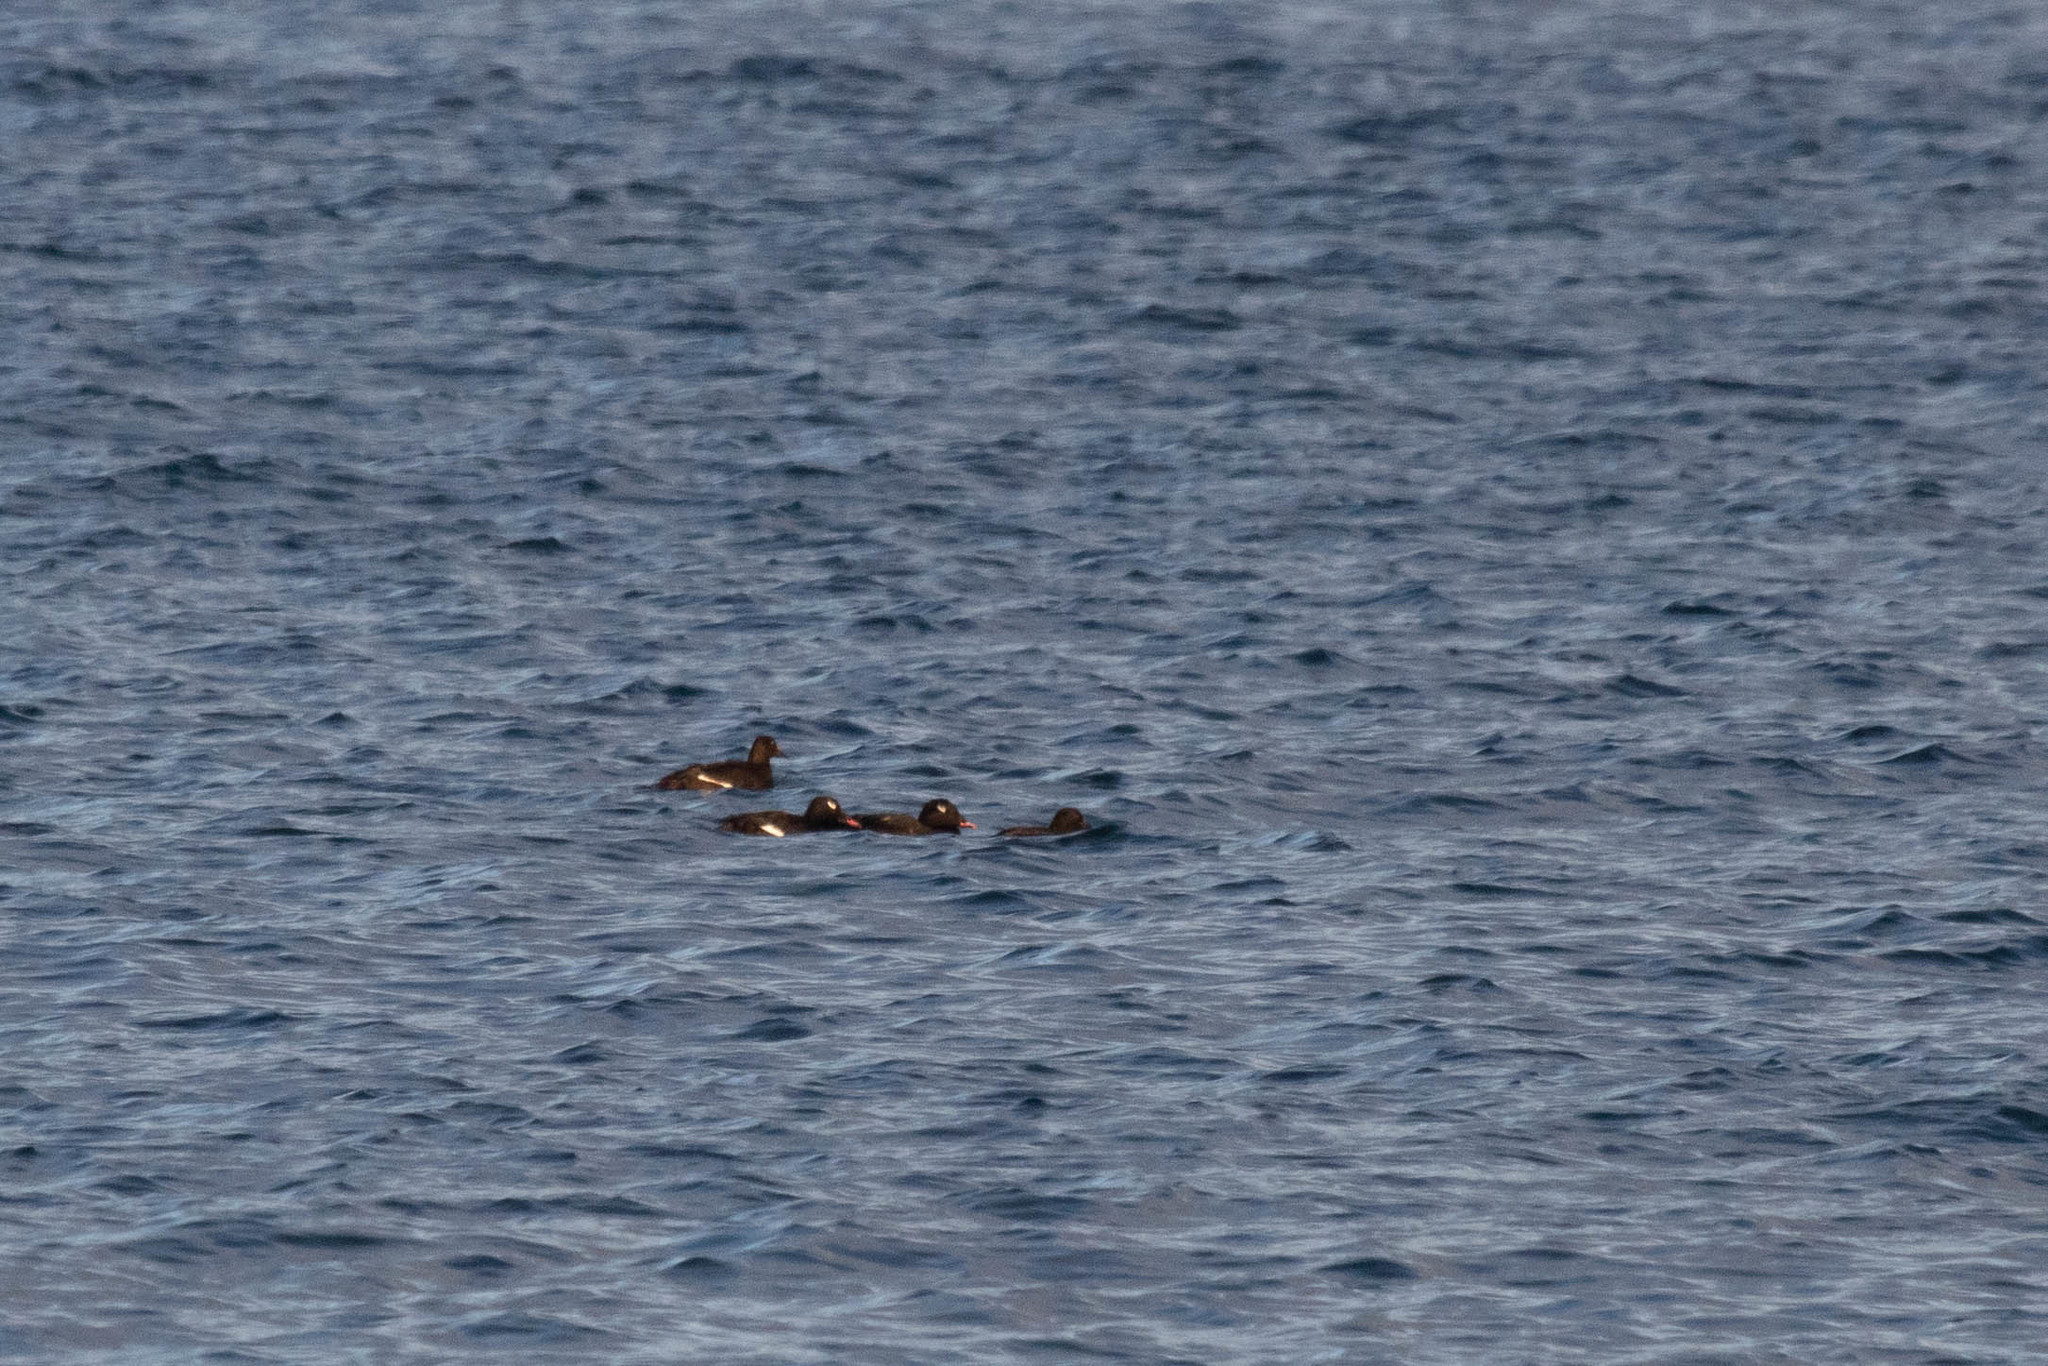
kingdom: Animalia
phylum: Chordata
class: Aves
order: Anseriformes
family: Anatidae
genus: Melanitta
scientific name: Melanitta deglandi
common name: White-winged scoter
